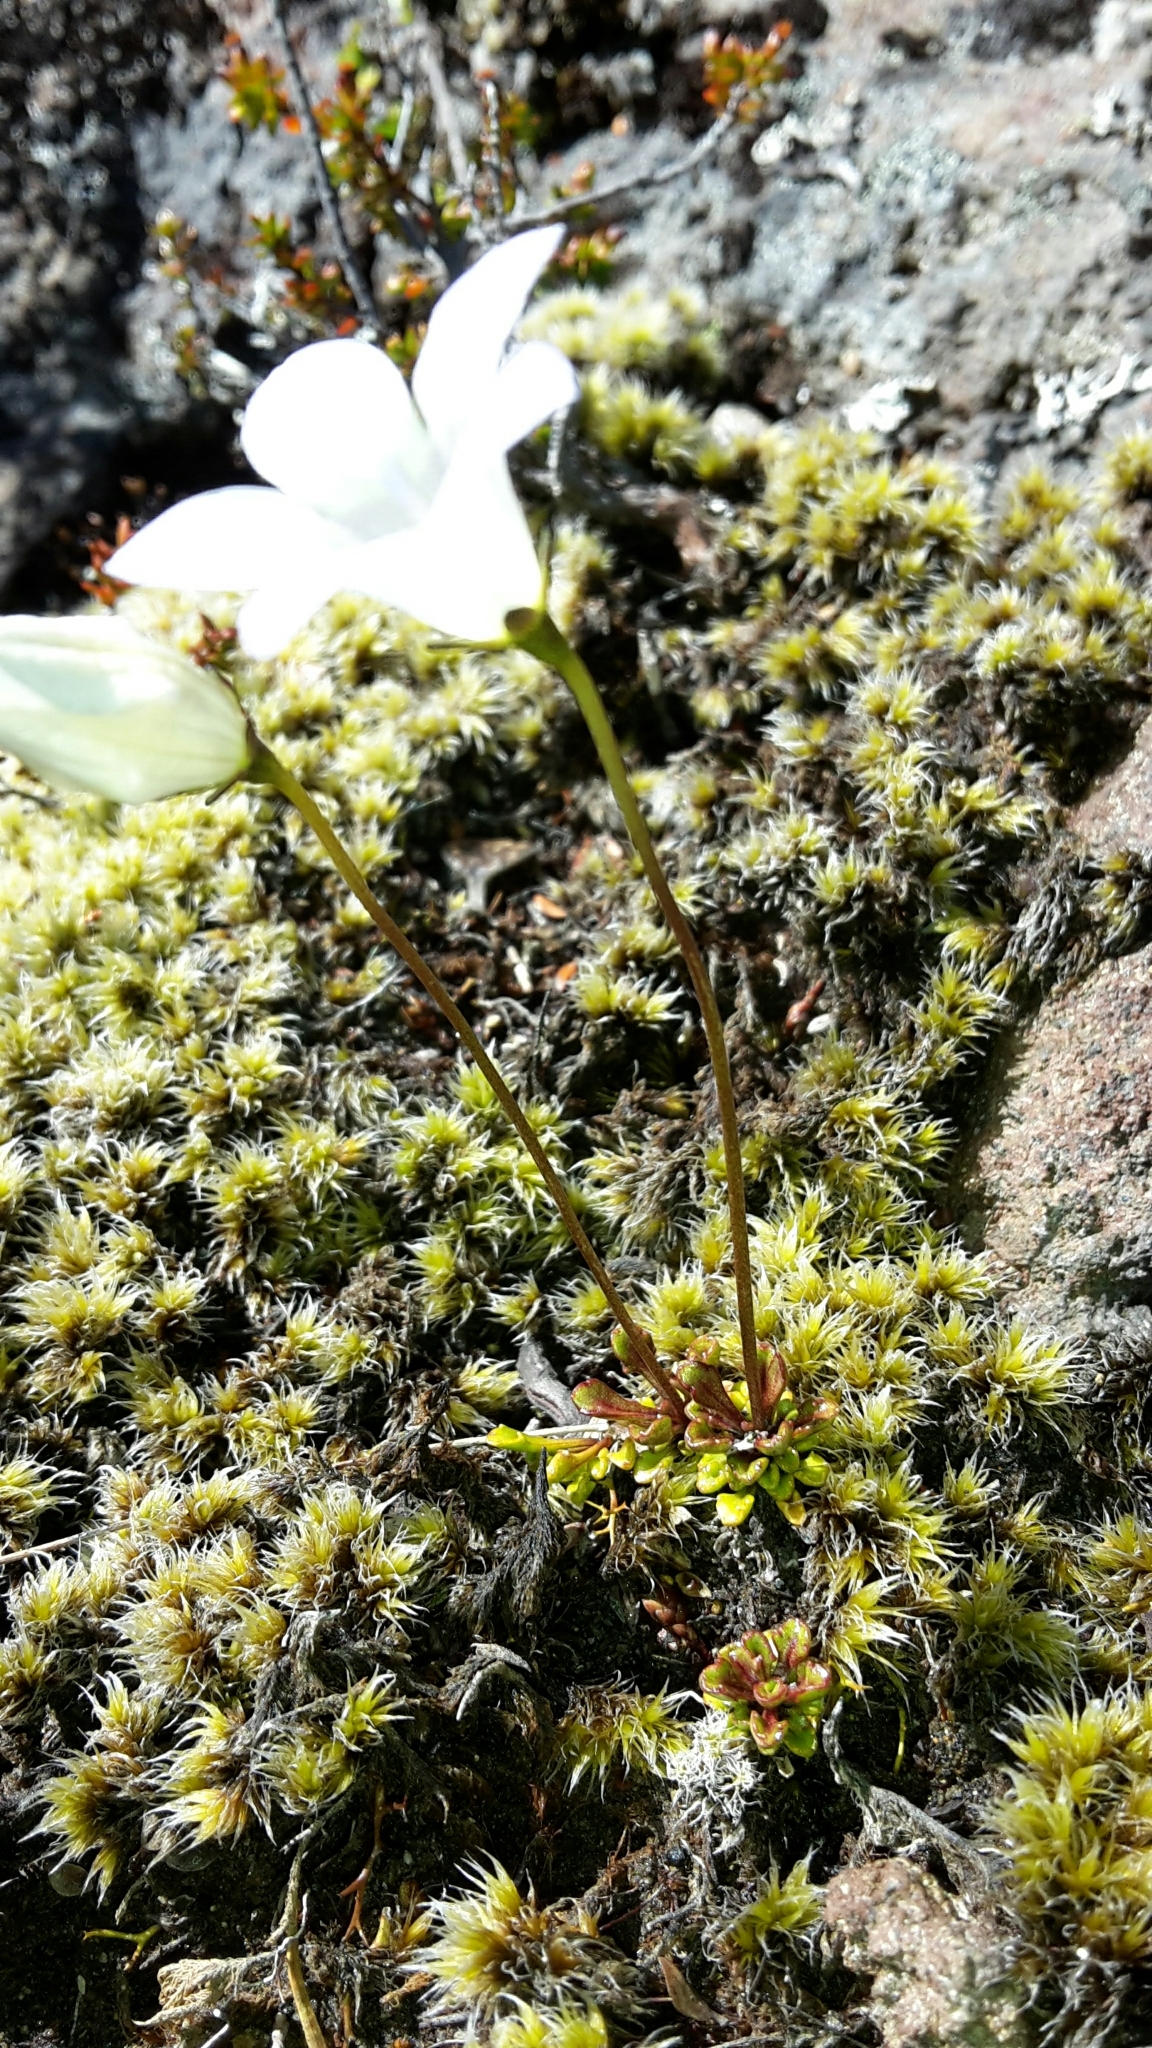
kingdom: Plantae
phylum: Tracheophyta
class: Magnoliopsida
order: Asterales
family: Campanulaceae
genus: Wahlenbergia
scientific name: Wahlenbergia pygmaea
